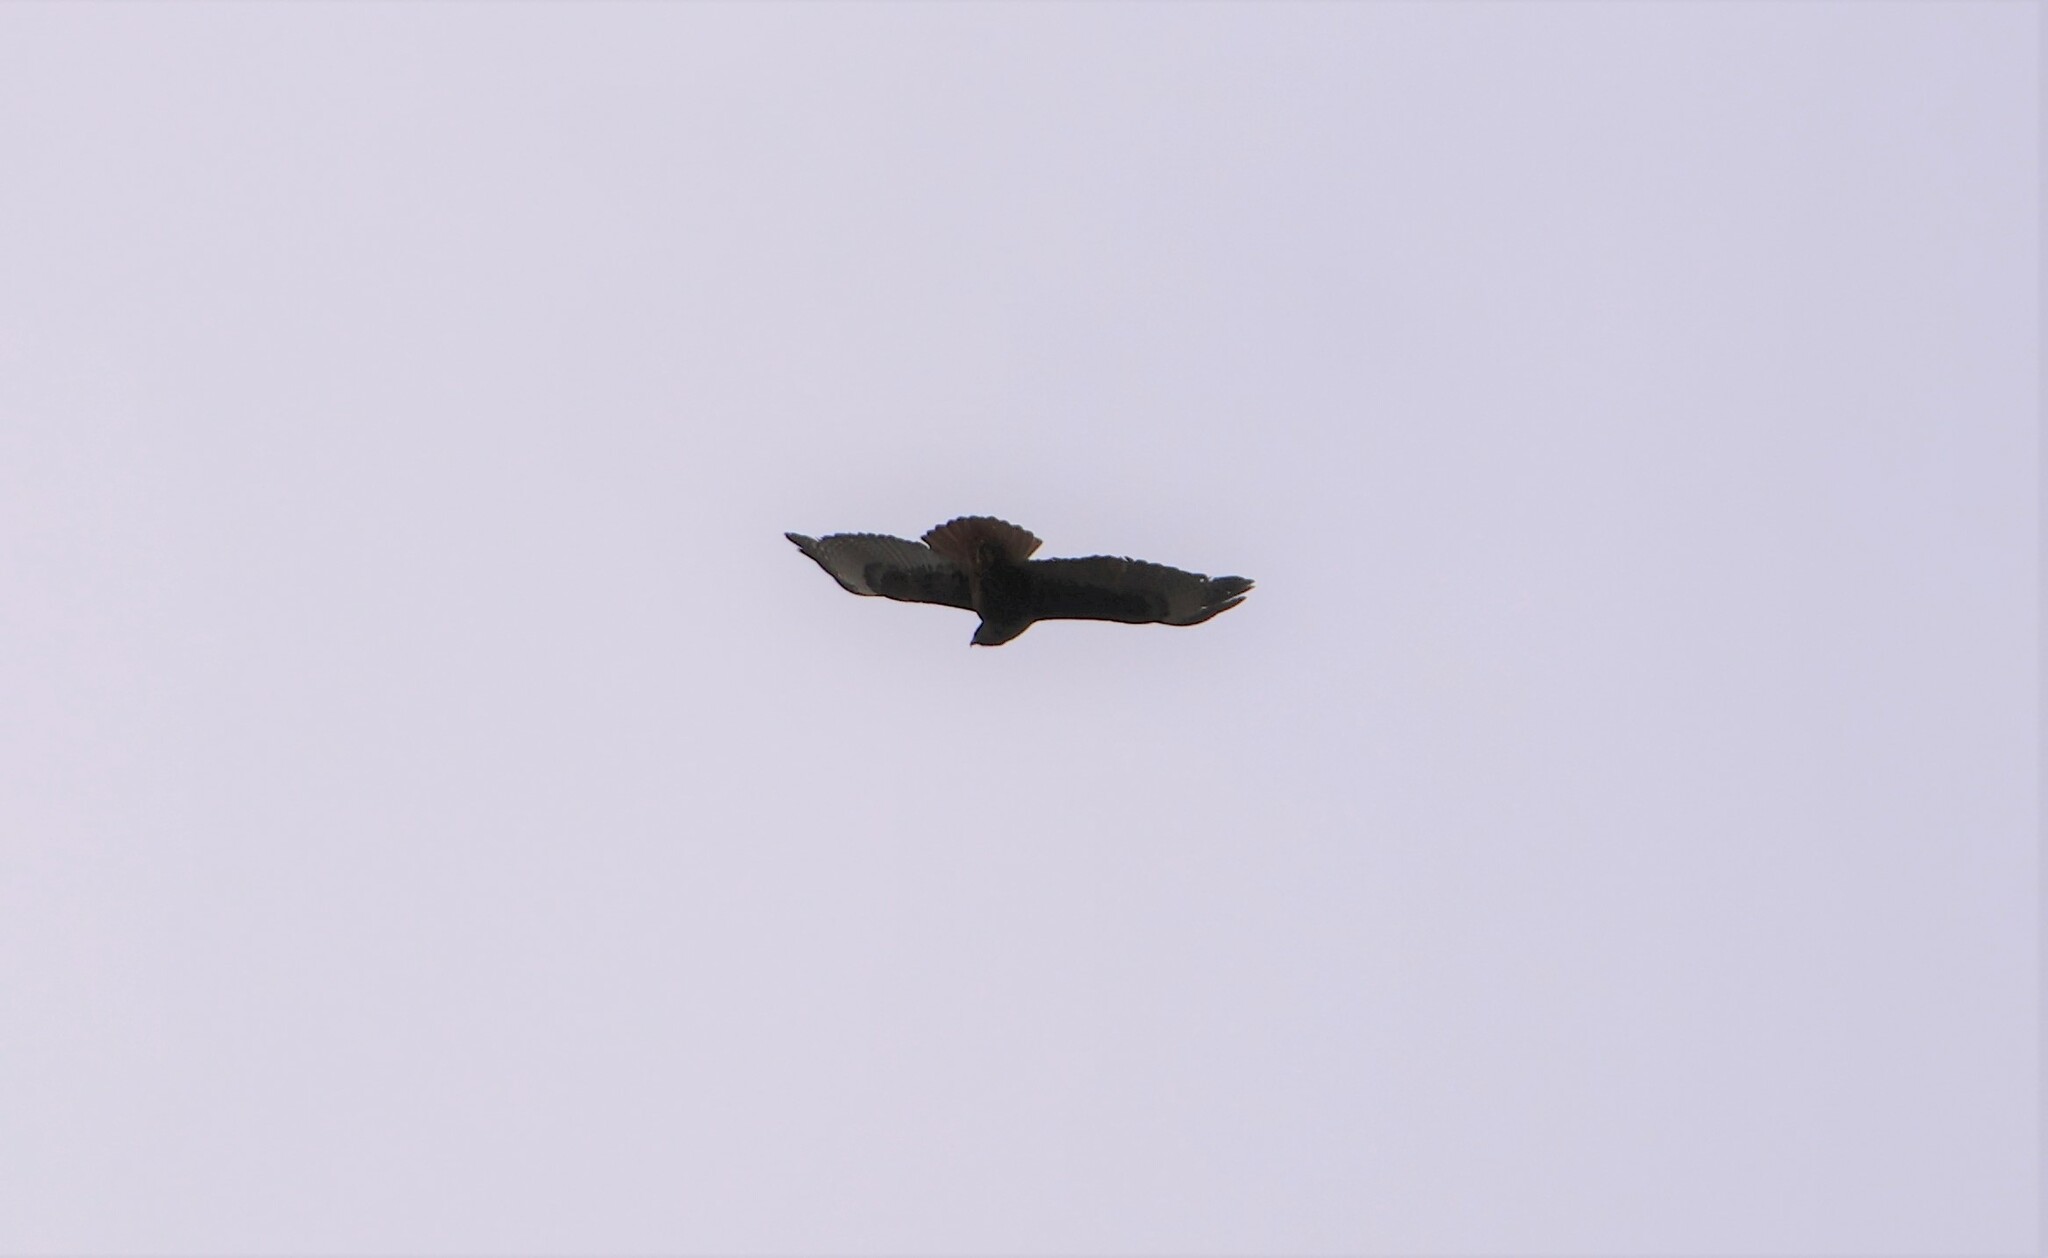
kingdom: Animalia
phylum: Chordata
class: Aves
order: Accipitriformes
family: Accipitridae
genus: Buteo
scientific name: Buteo jamaicensis
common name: Red-tailed hawk
